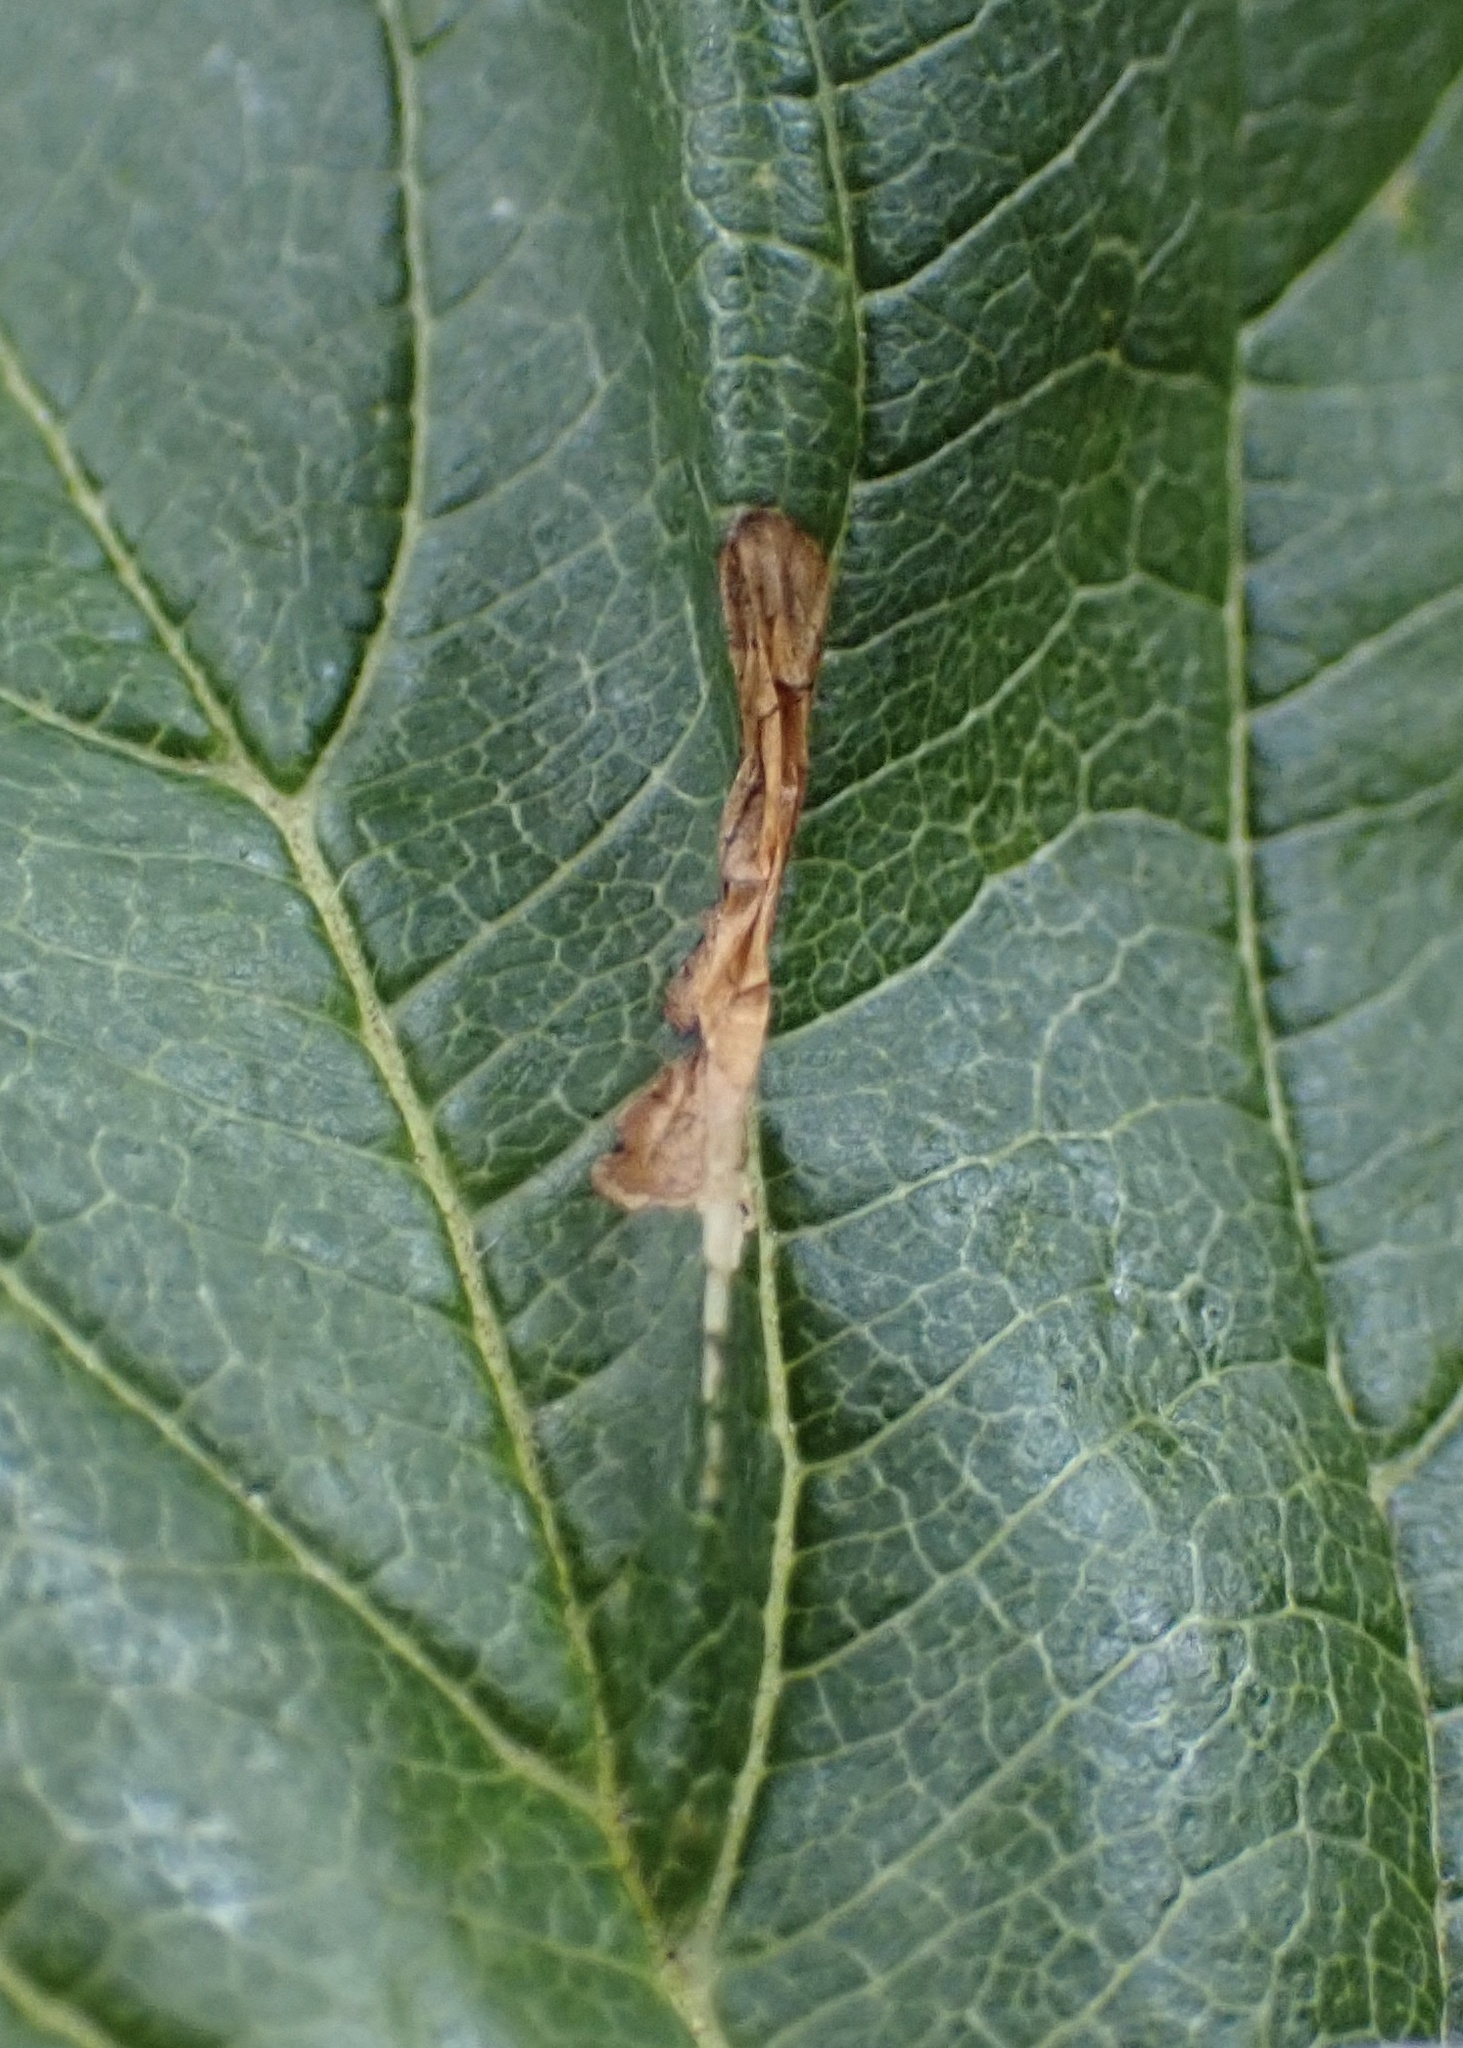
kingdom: Animalia
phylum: Arthropoda
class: Insecta
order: Lepidoptera
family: Gracillariidae
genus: Phyllonorycter
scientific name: Phyllonorycter viburnella
